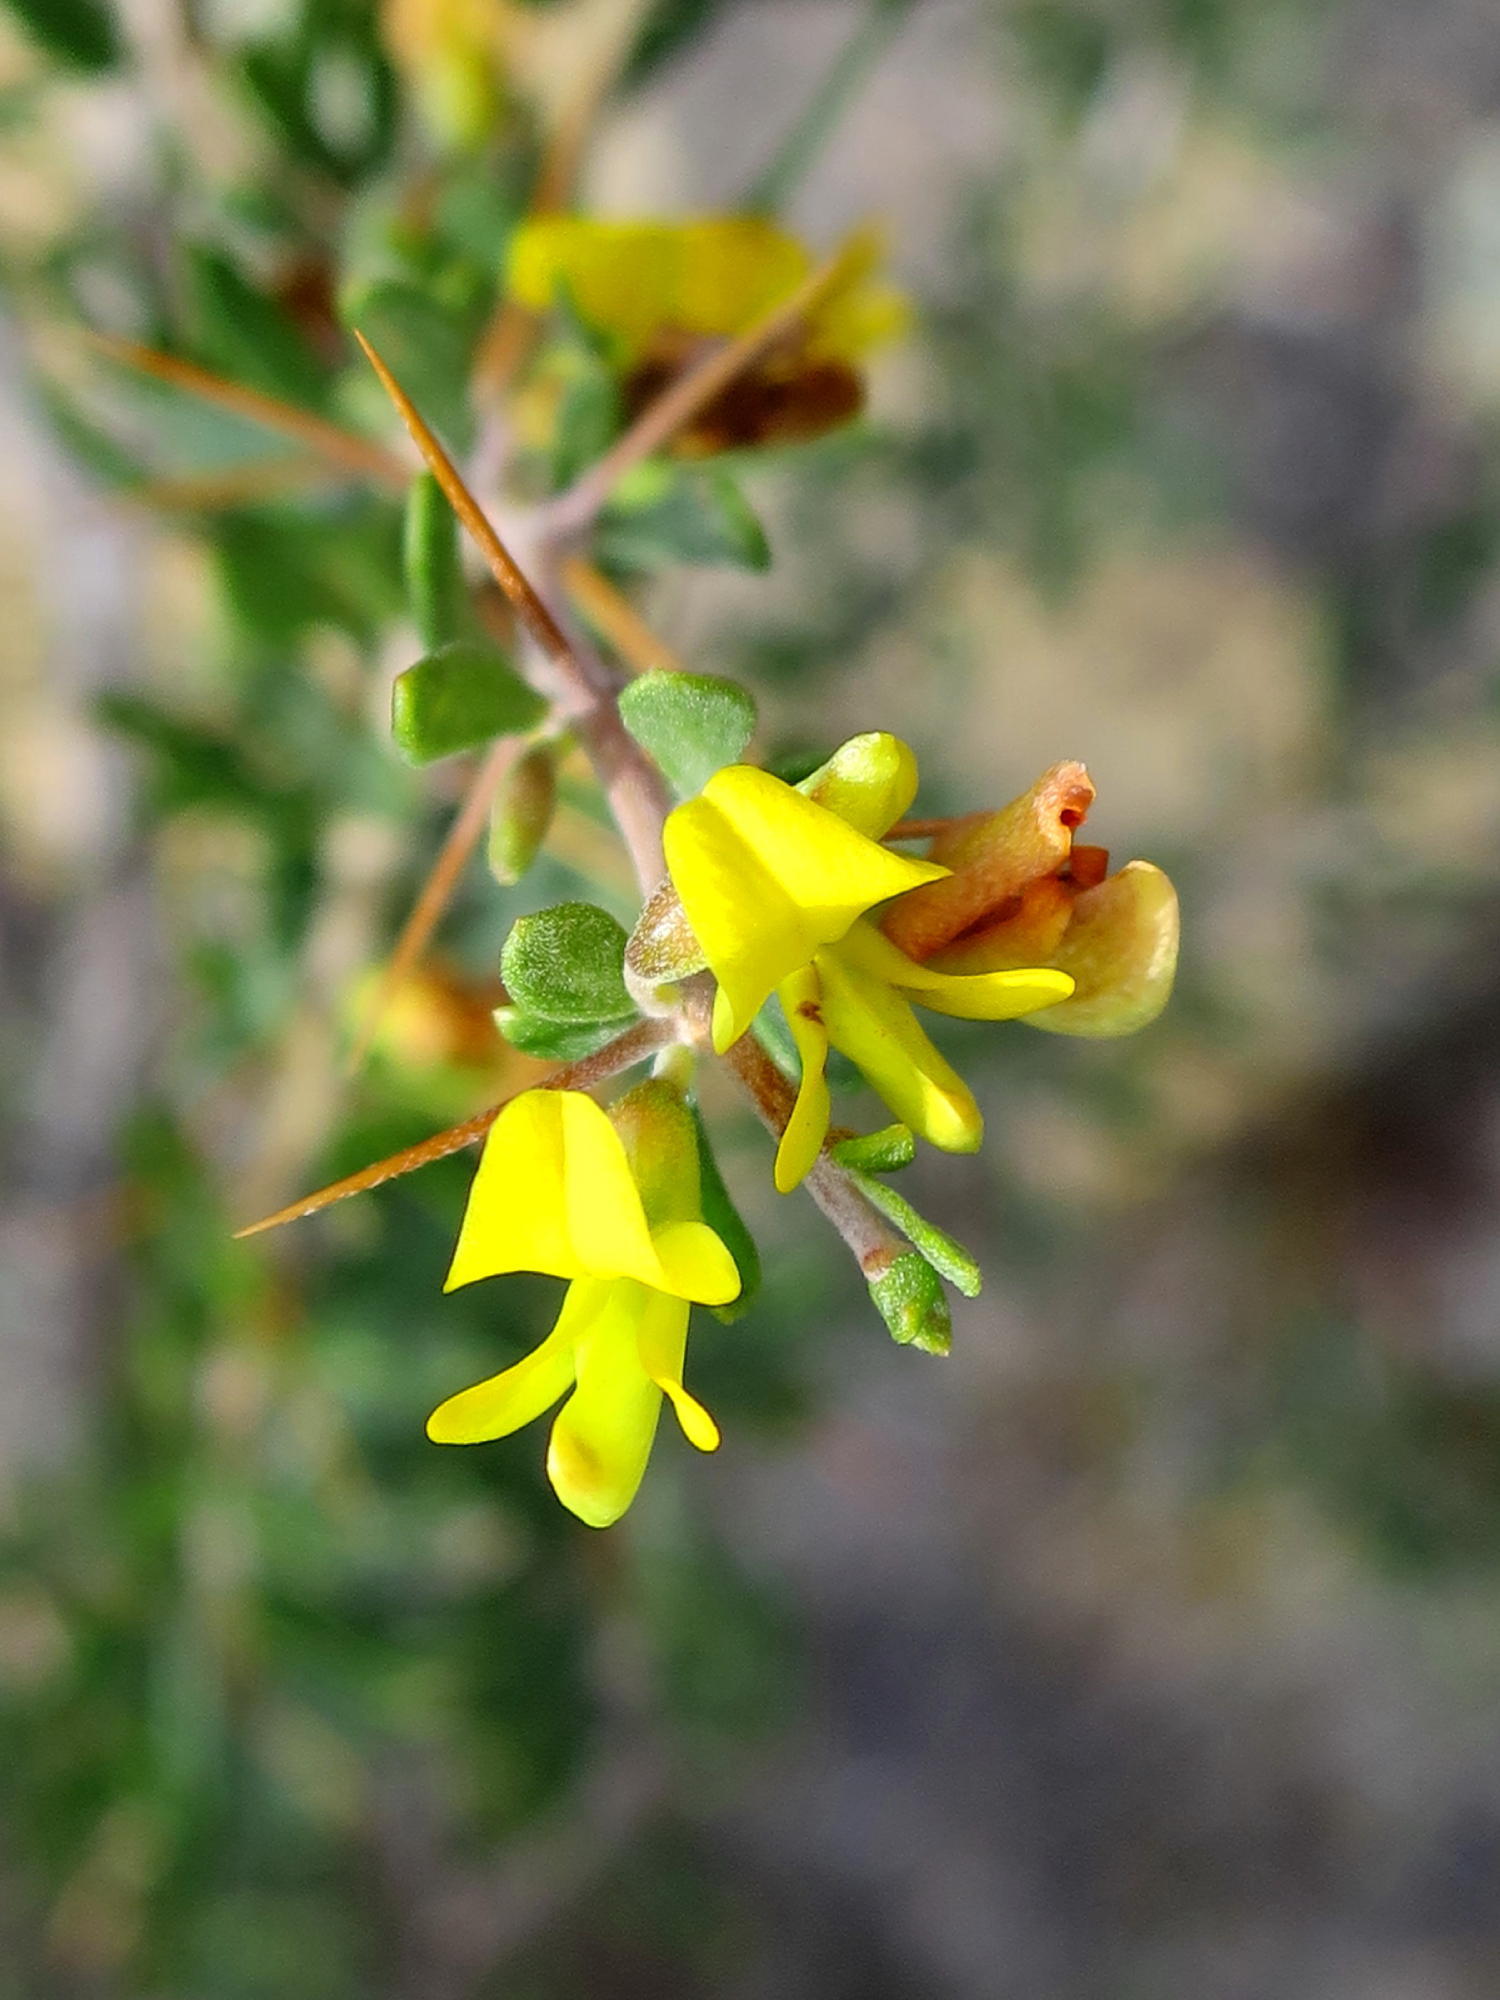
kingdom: Plantae
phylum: Tracheophyta
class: Magnoliopsida
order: Fabales
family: Fabaceae
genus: Aspalathus
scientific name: Aspalathus spinosa
